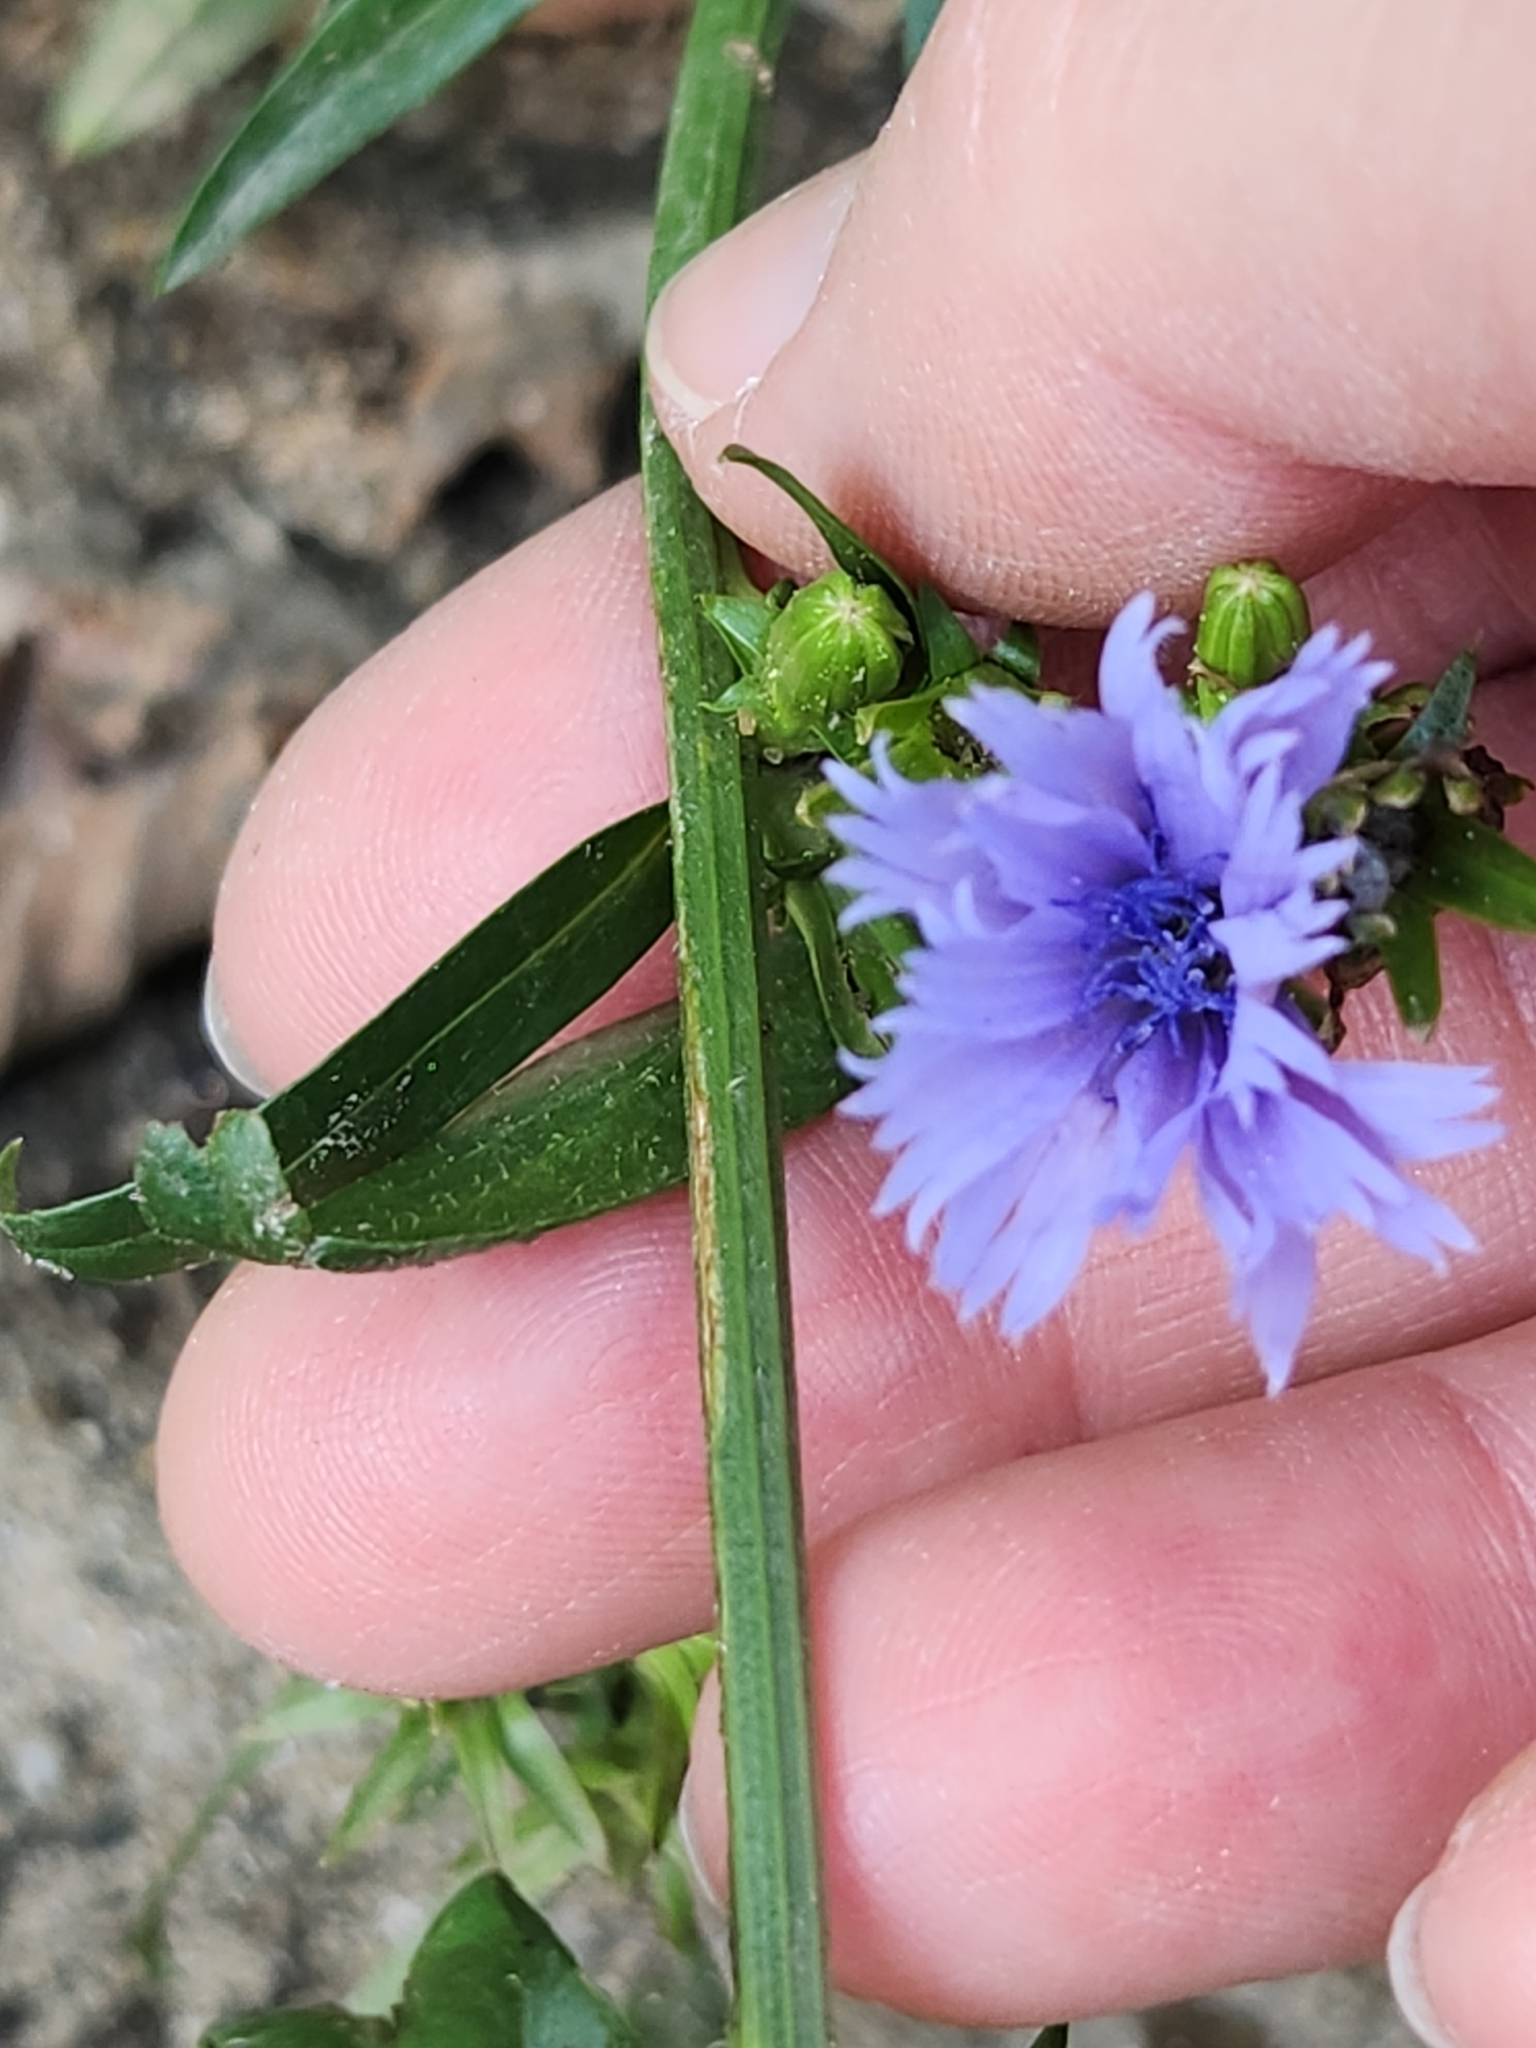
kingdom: Plantae
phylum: Tracheophyta
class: Magnoliopsida
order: Asterales
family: Asteraceae
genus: Cichorium
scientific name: Cichorium intybus
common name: Chicory
